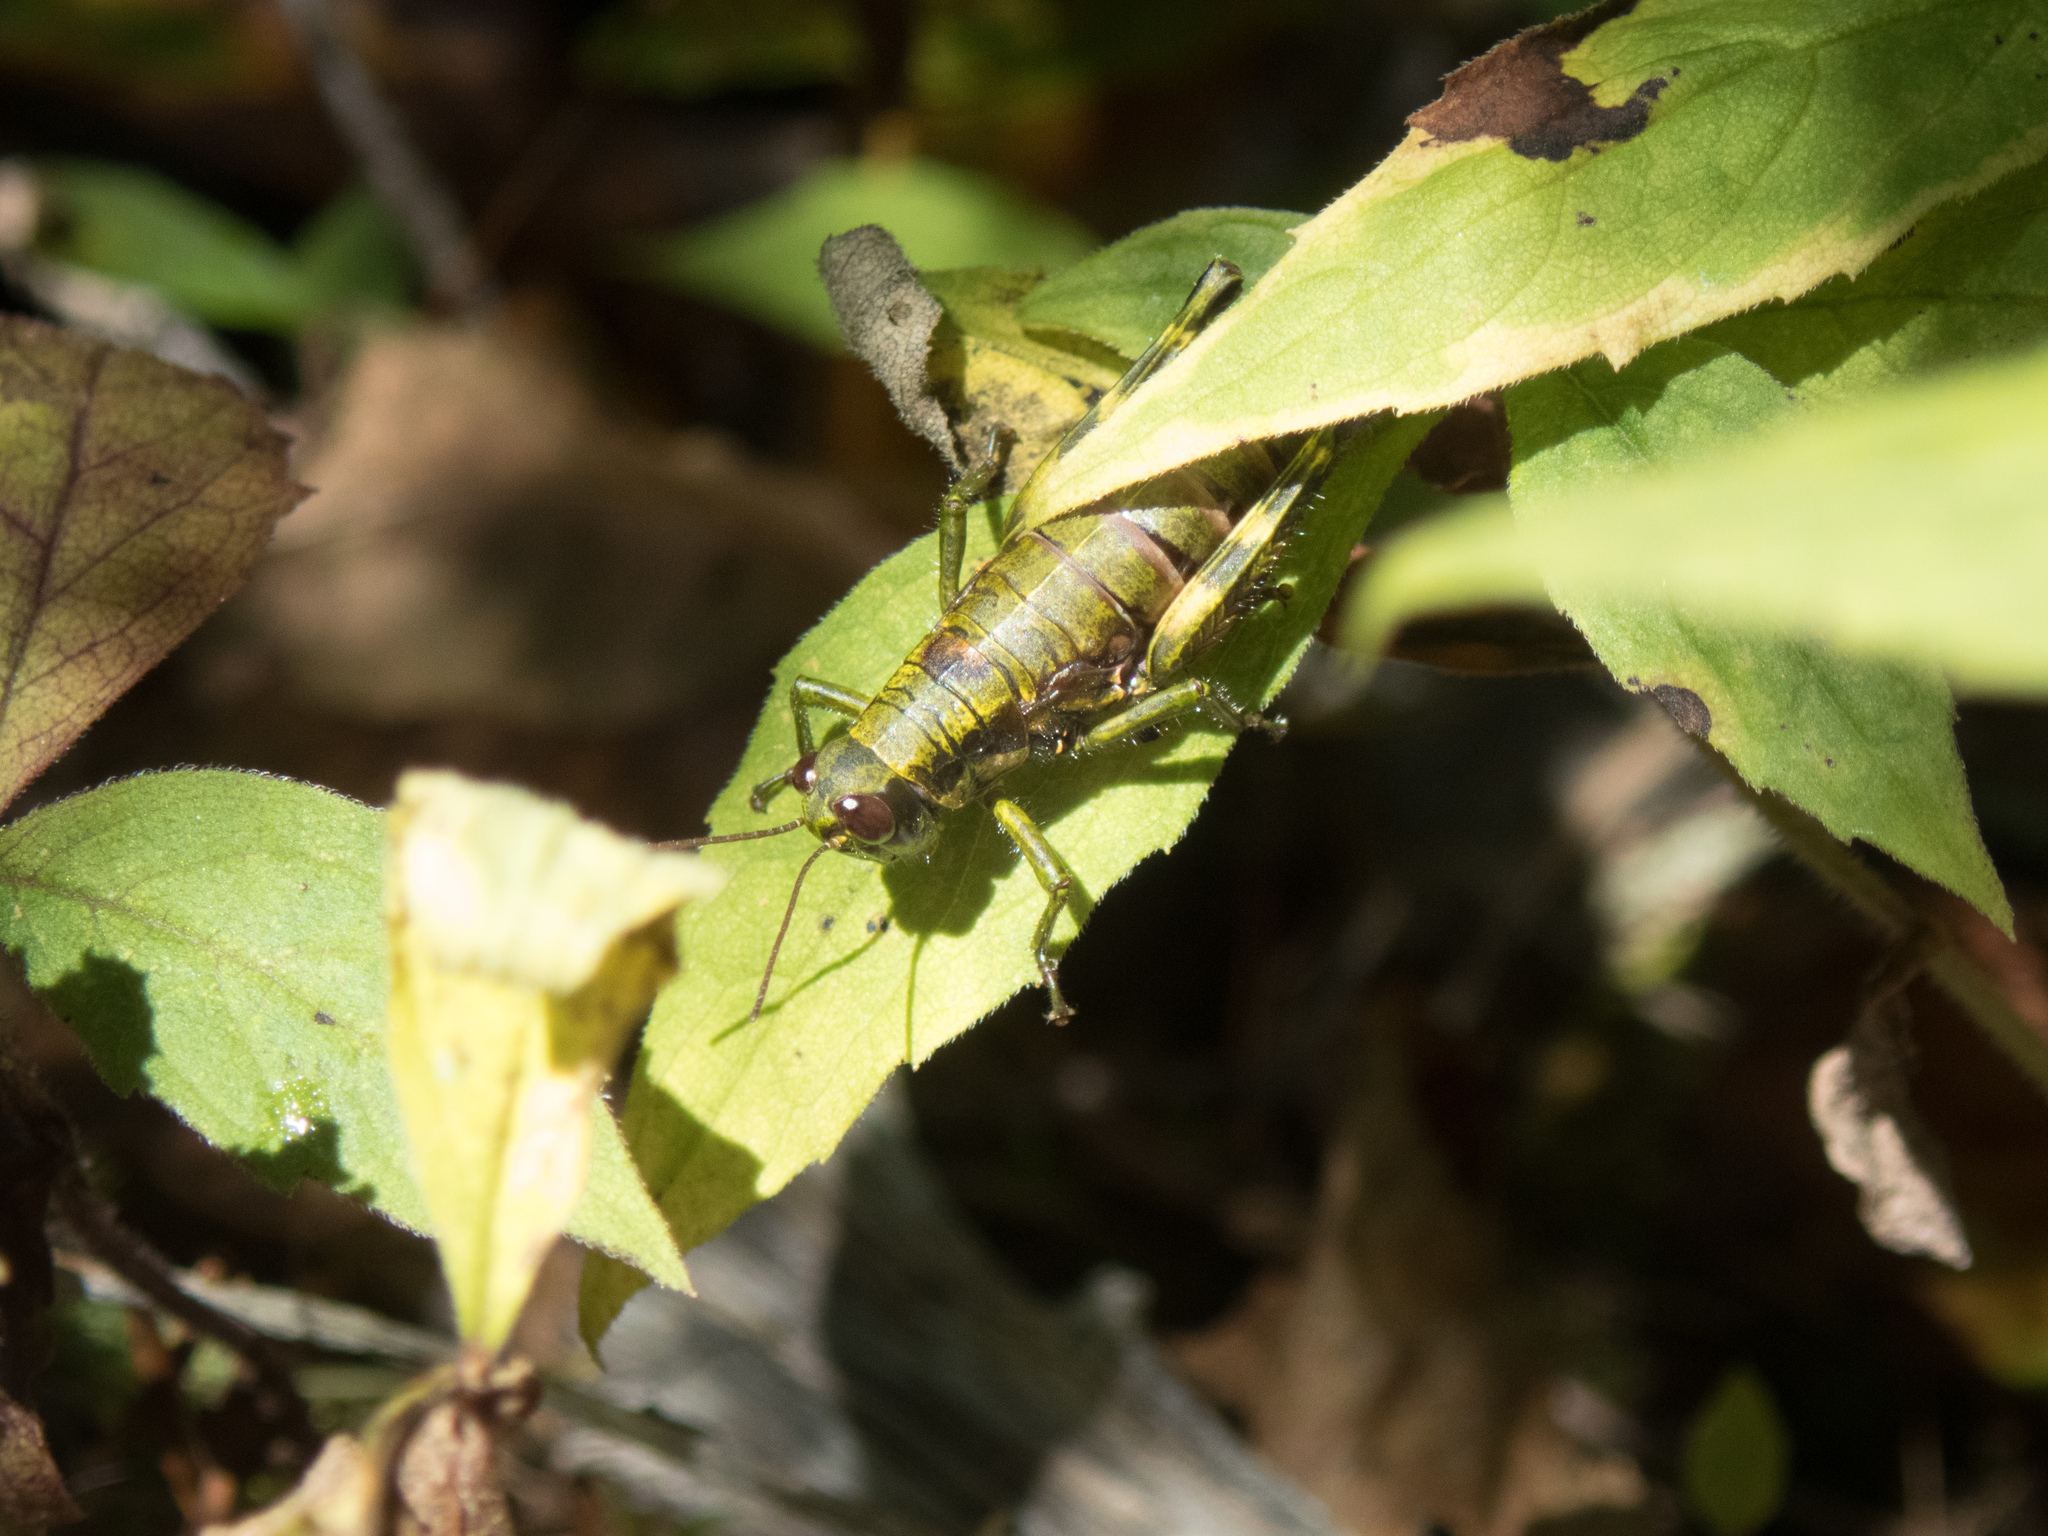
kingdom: Animalia
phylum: Arthropoda
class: Insecta
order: Orthoptera
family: Acrididae
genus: Booneacris
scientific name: Booneacris glacialis
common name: Wingless mountain grasshopper
